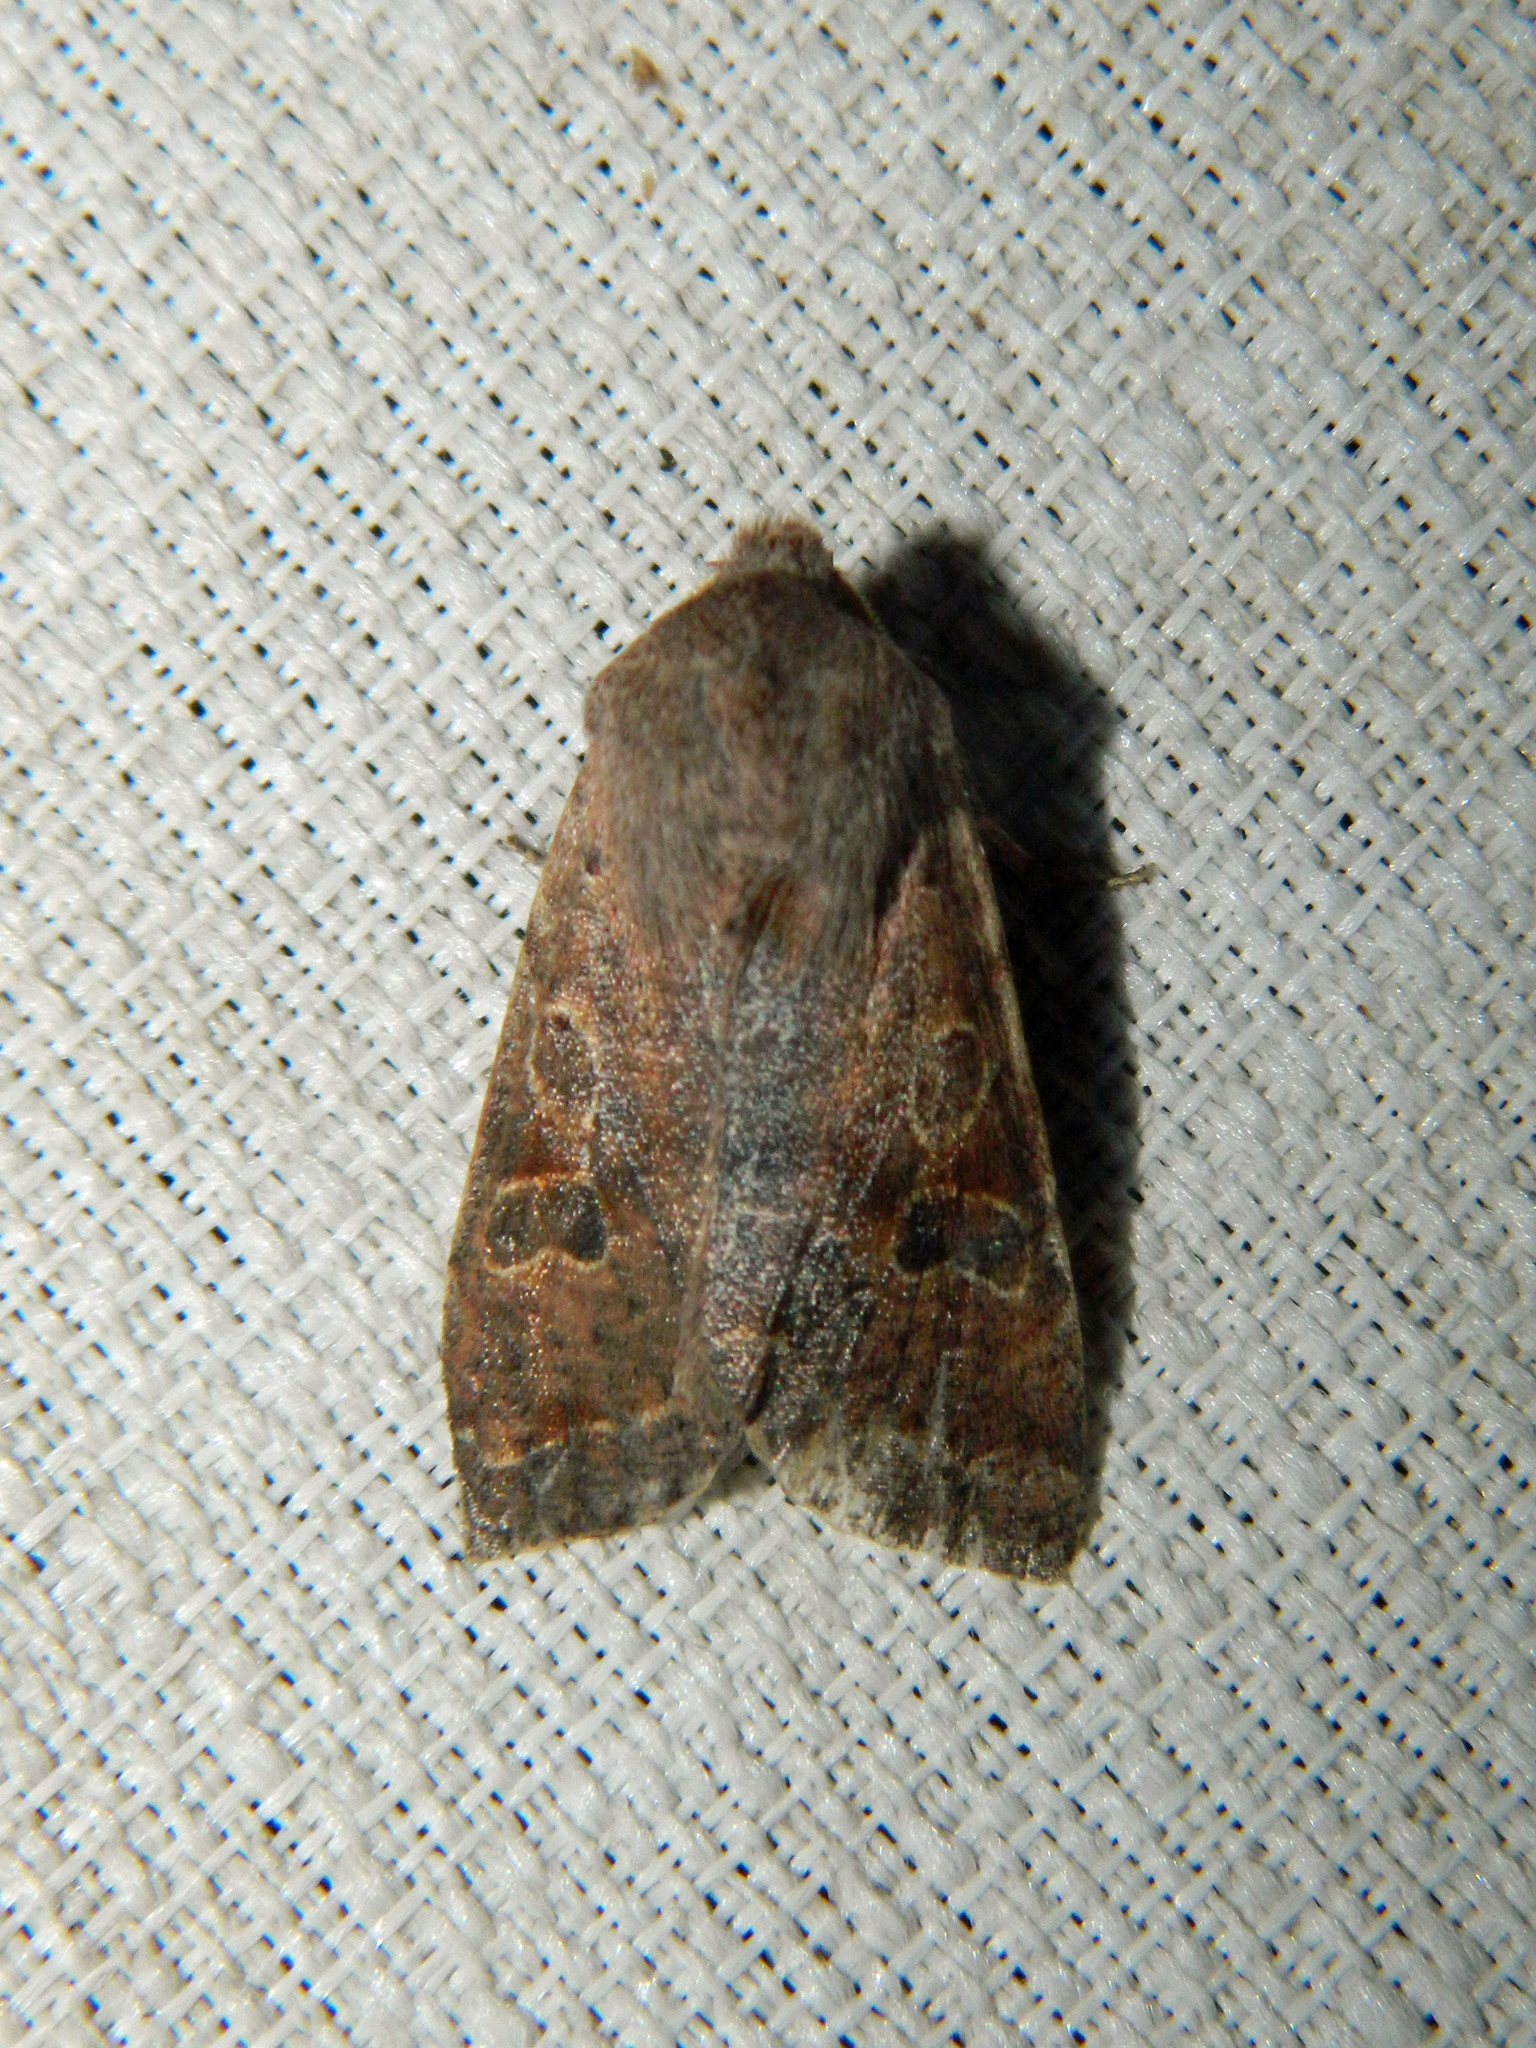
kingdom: Animalia
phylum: Arthropoda
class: Insecta
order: Lepidoptera
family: Noctuidae
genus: Orthosia
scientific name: Orthosia hibisci
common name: Green fruitworm
